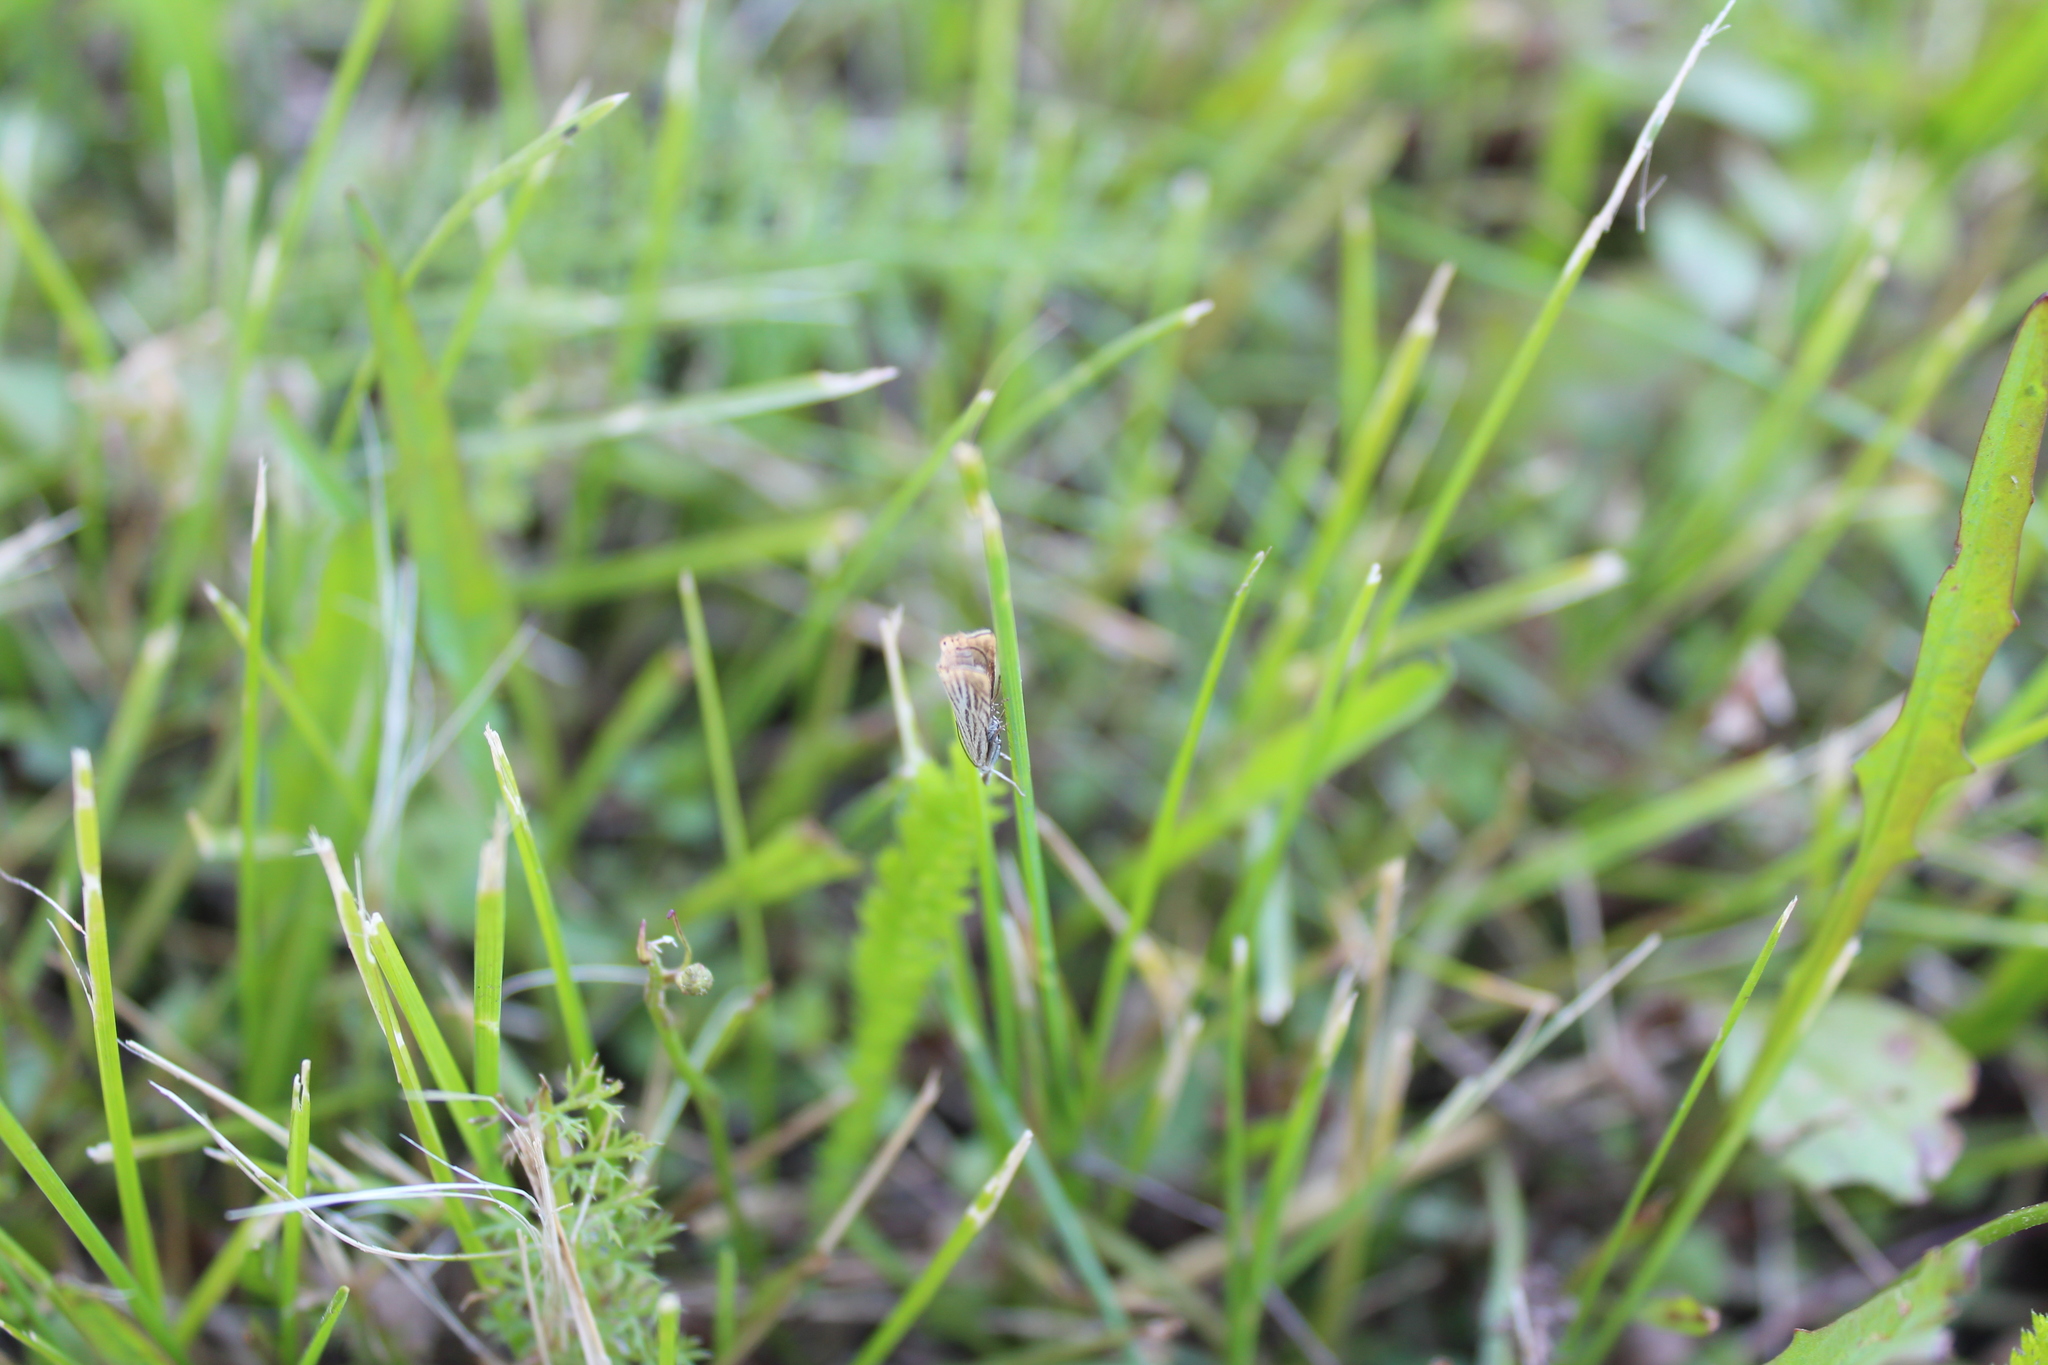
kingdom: Animalia
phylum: Arthropoda
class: Insecta
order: Lepidoptera
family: Crambidae
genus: Chrysoteuchia
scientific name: Chrysoteuchia culmella
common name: Garden grass-veneer
